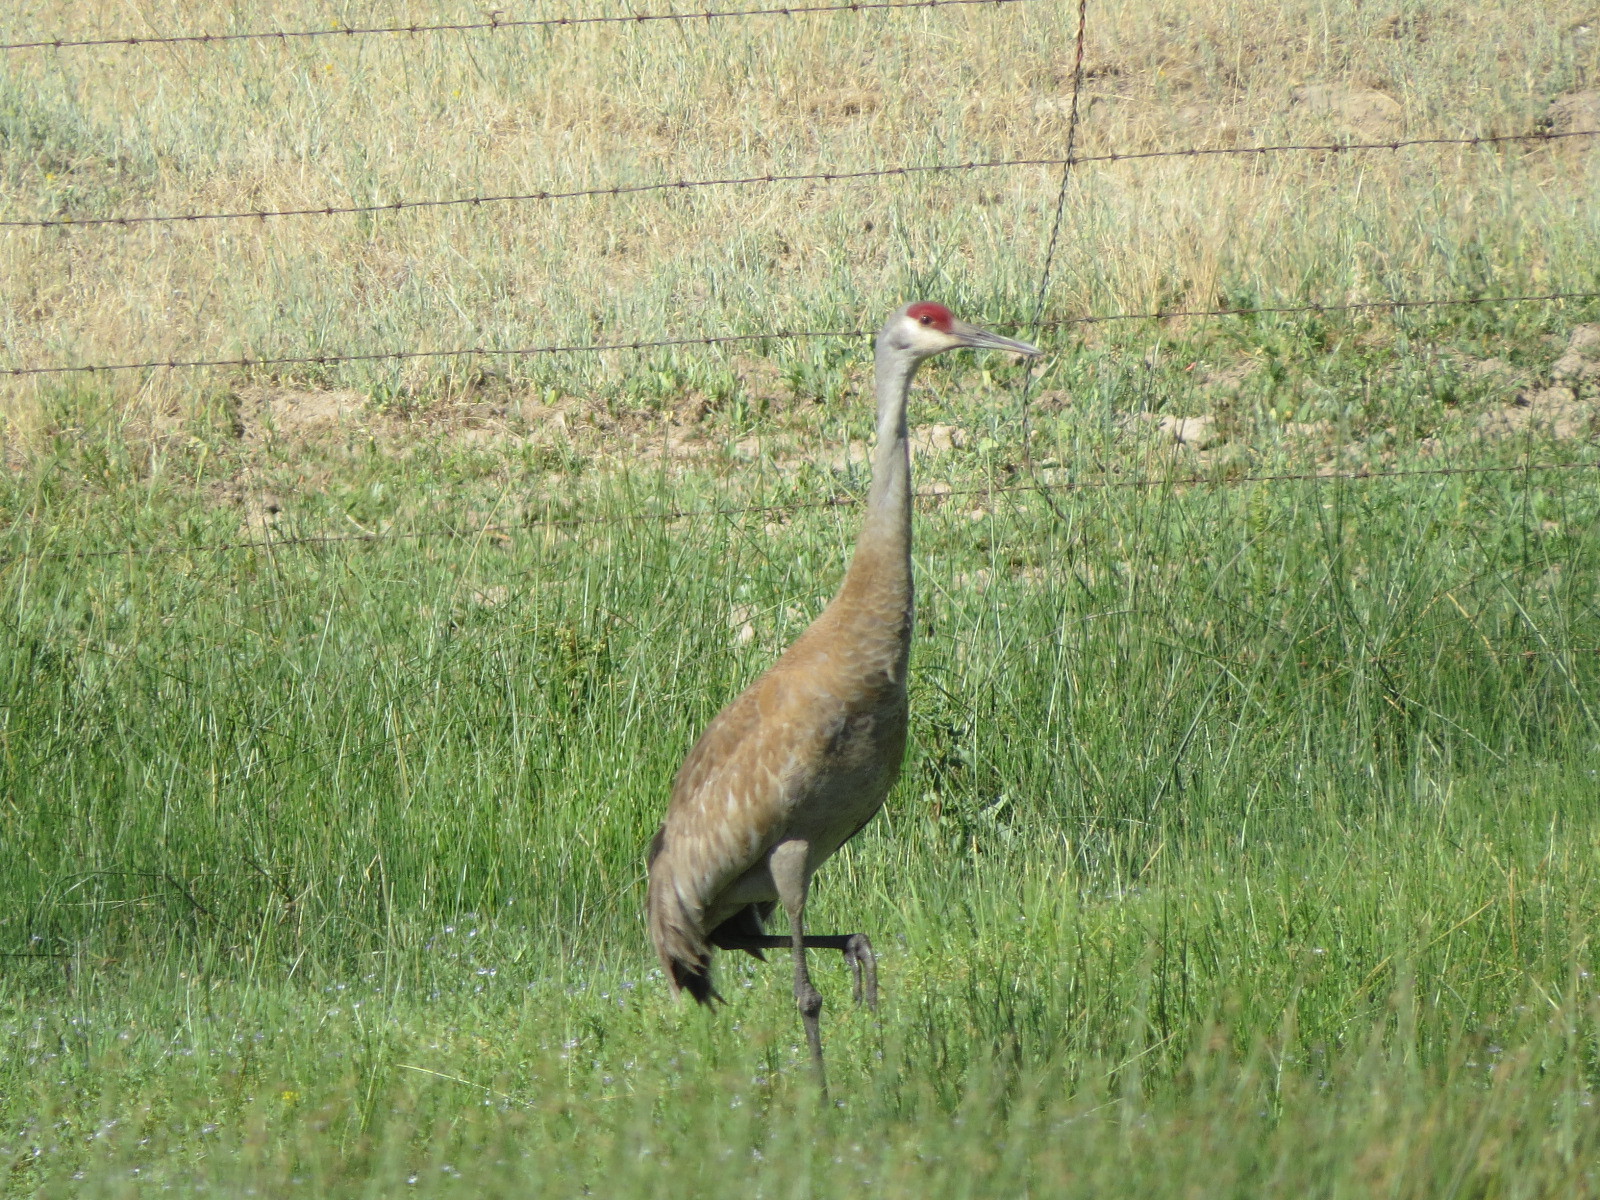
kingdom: Animalia
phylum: Chordata
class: Aves
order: Gruiformes
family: Gruidae
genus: Grus
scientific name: Grus canadensis
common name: Sandhill crane
